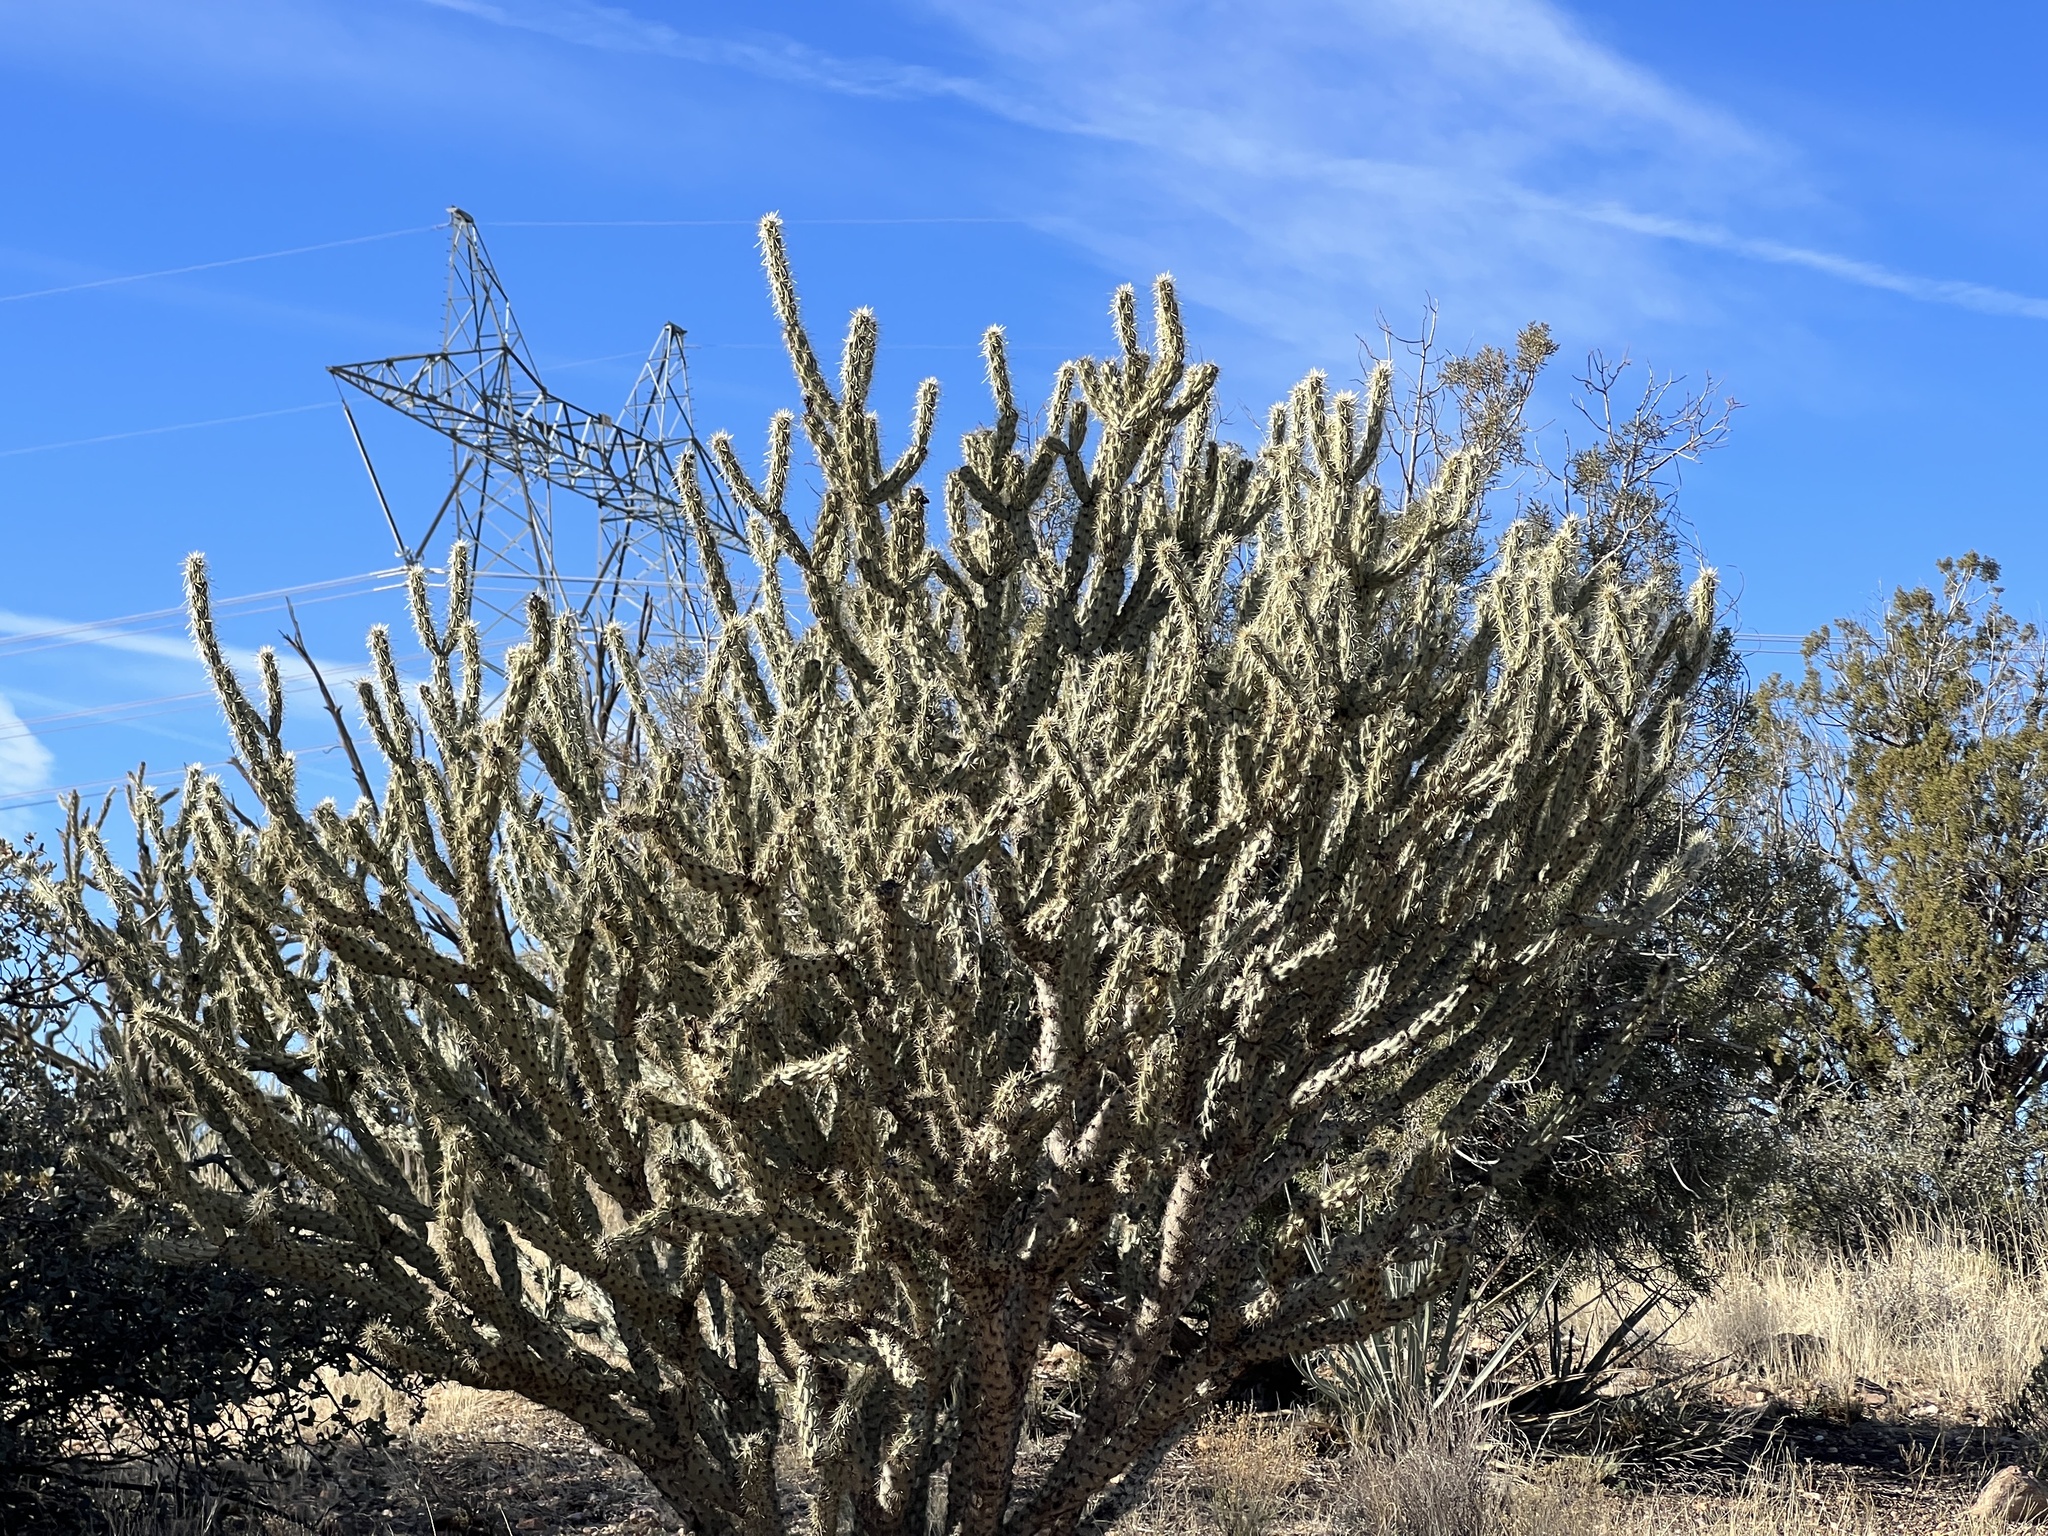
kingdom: Plantae
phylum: Tracheophyta
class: Magnoliopsida
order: Caryophyllales
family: Cactaceae
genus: Cylindropuntia
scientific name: Cylindropuntia acanthocarpa
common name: Buckhorn cholla
